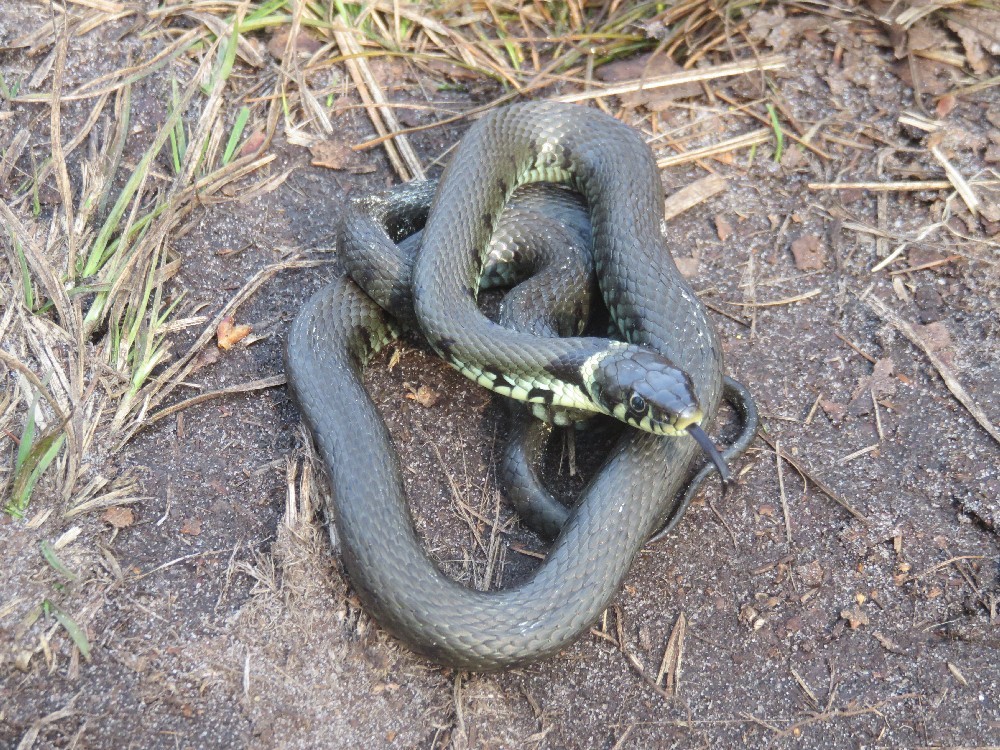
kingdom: Animalia
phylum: Chordata
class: Squamata
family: Colubridae
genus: Natrix
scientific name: Natrix helvetica
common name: Banded grass snake
